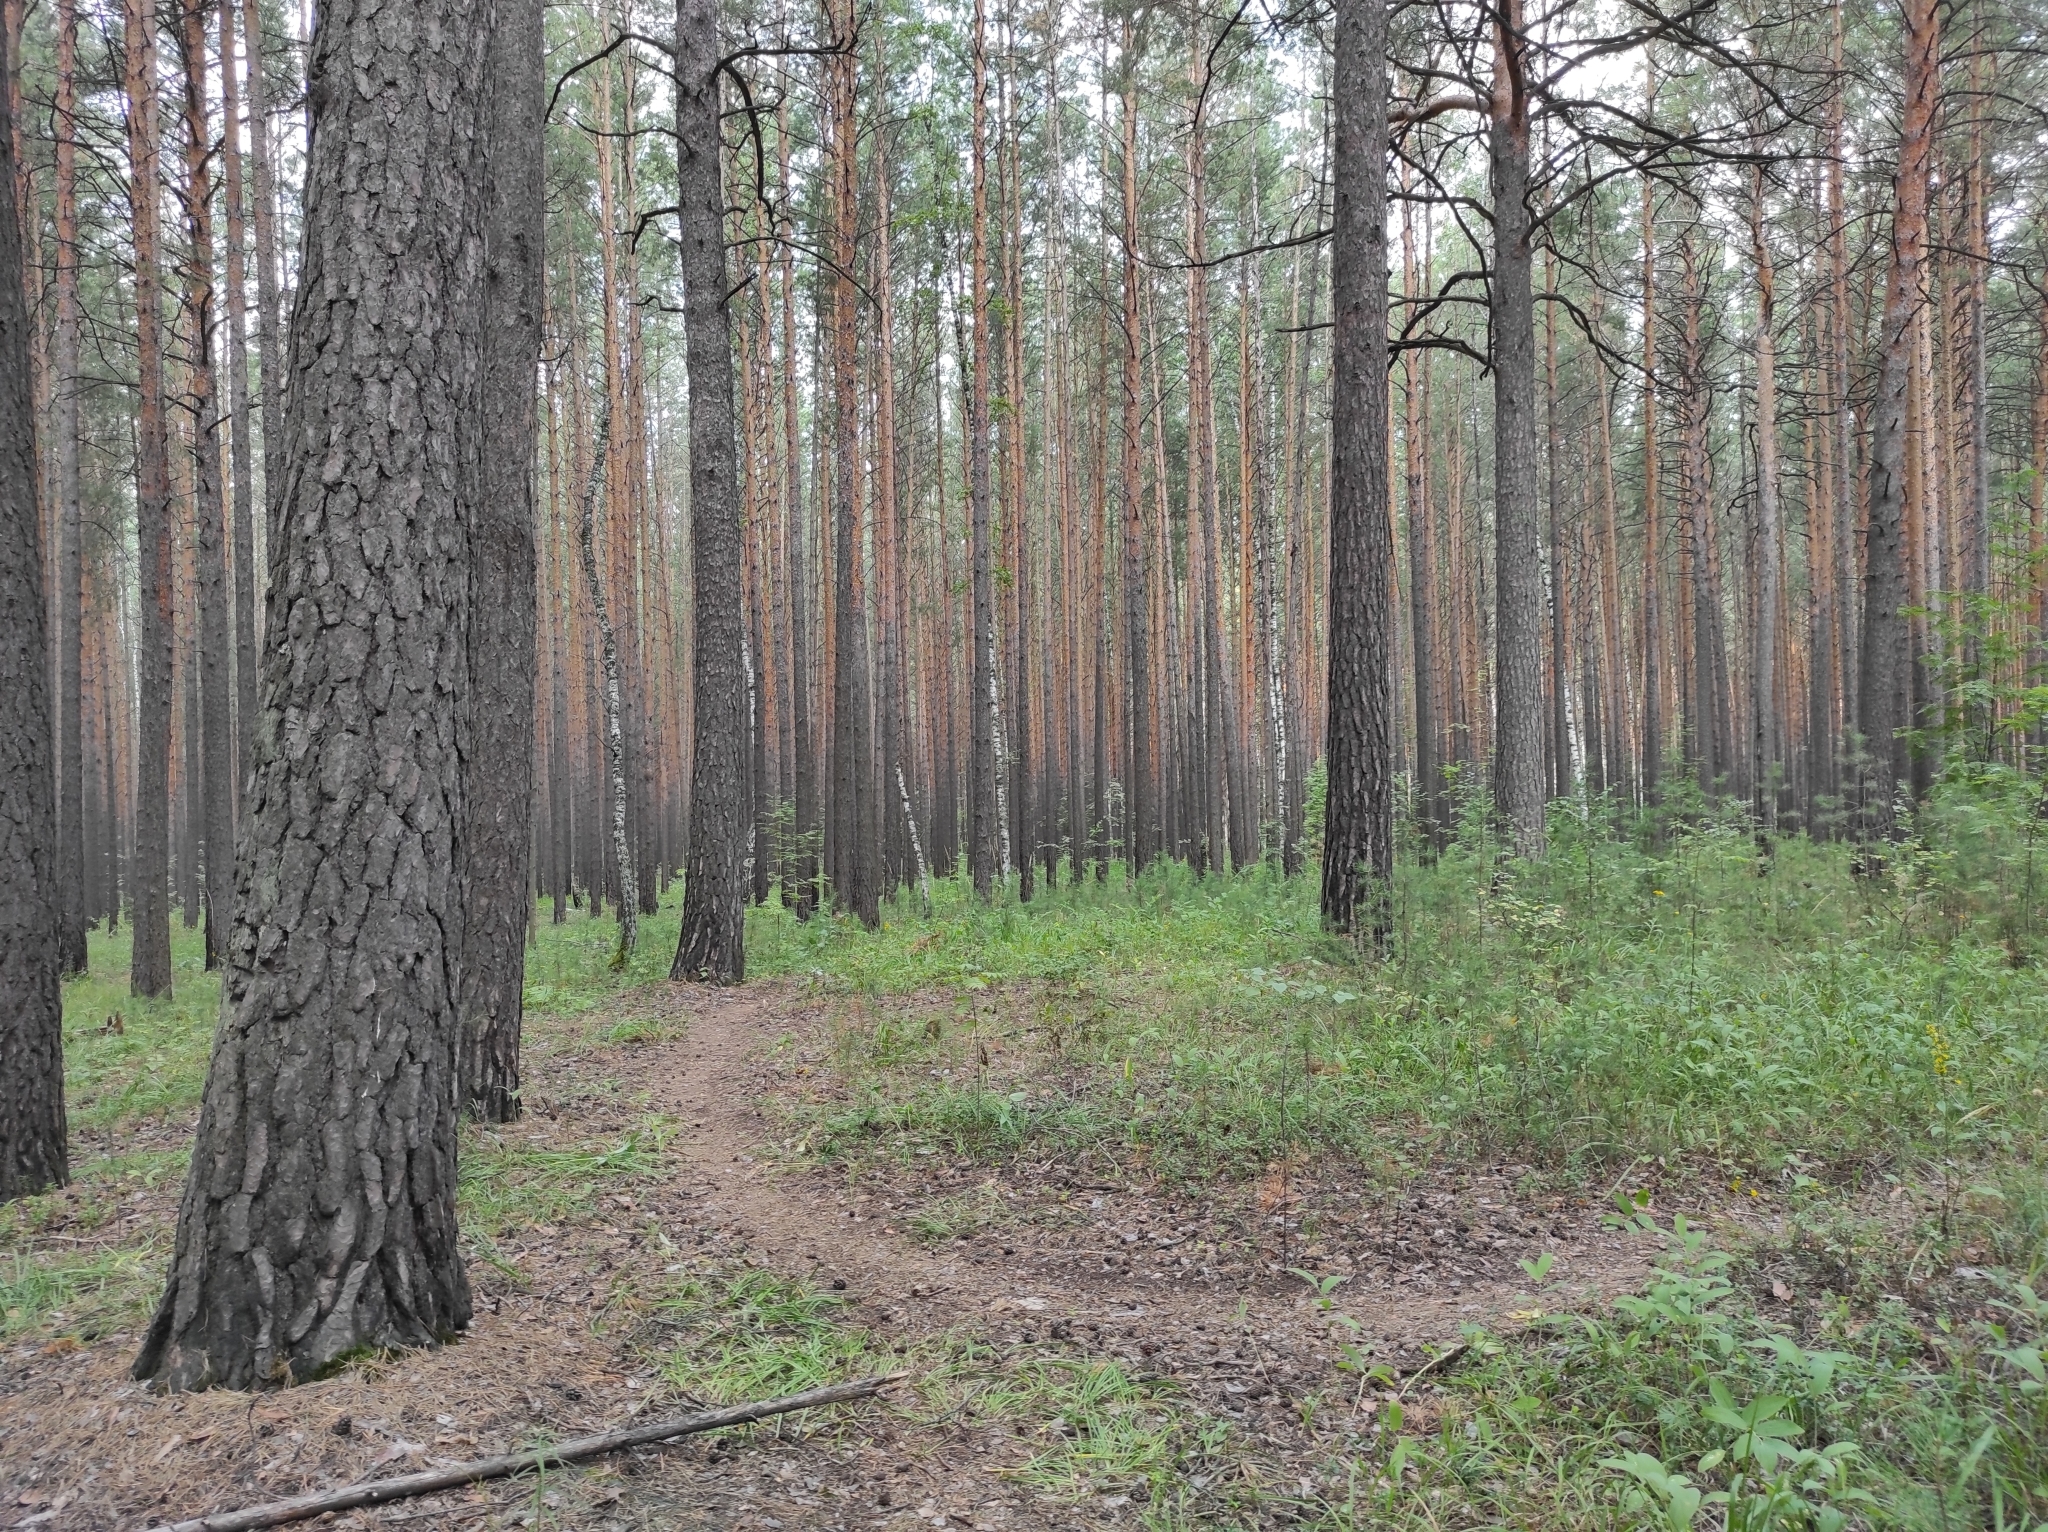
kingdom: Plantae
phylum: Tracheophyta
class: Pinopsida
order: Pinales
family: Pinaceae
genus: Pinus
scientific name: Pinus sylvestris
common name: Scots pine
